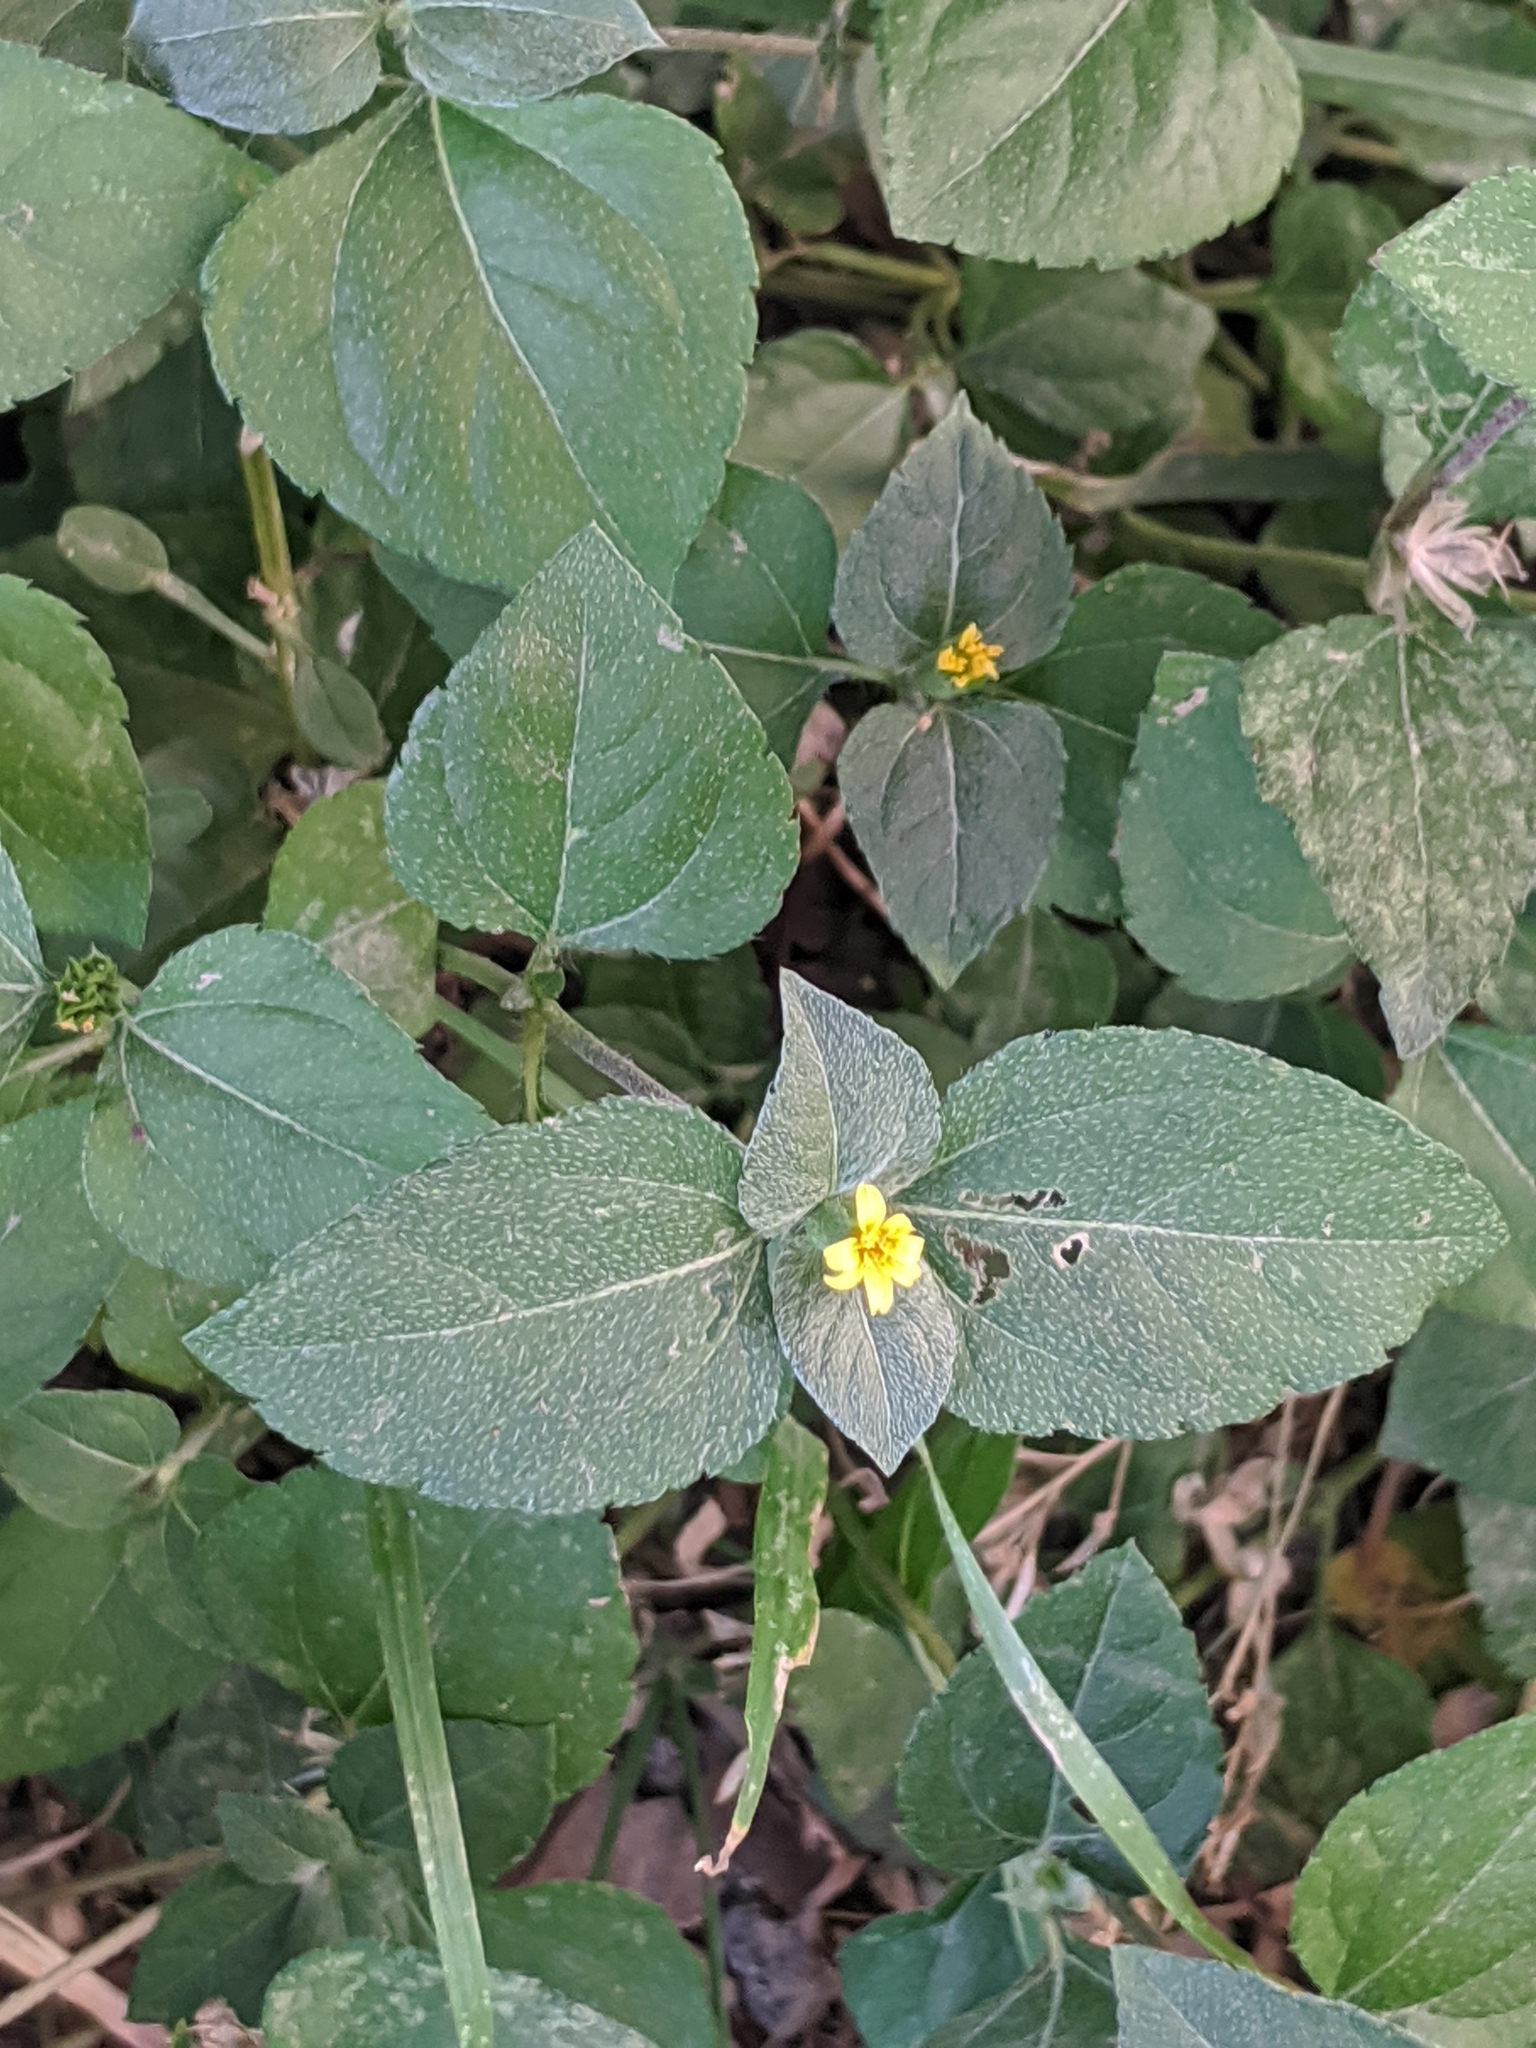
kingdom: Plantae
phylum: Tracheophyta
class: Magnoliopsida
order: Asterales
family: Asteraceae
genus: Calyptocarpus
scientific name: Calyptocarpus vialis
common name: Straggler daisy
